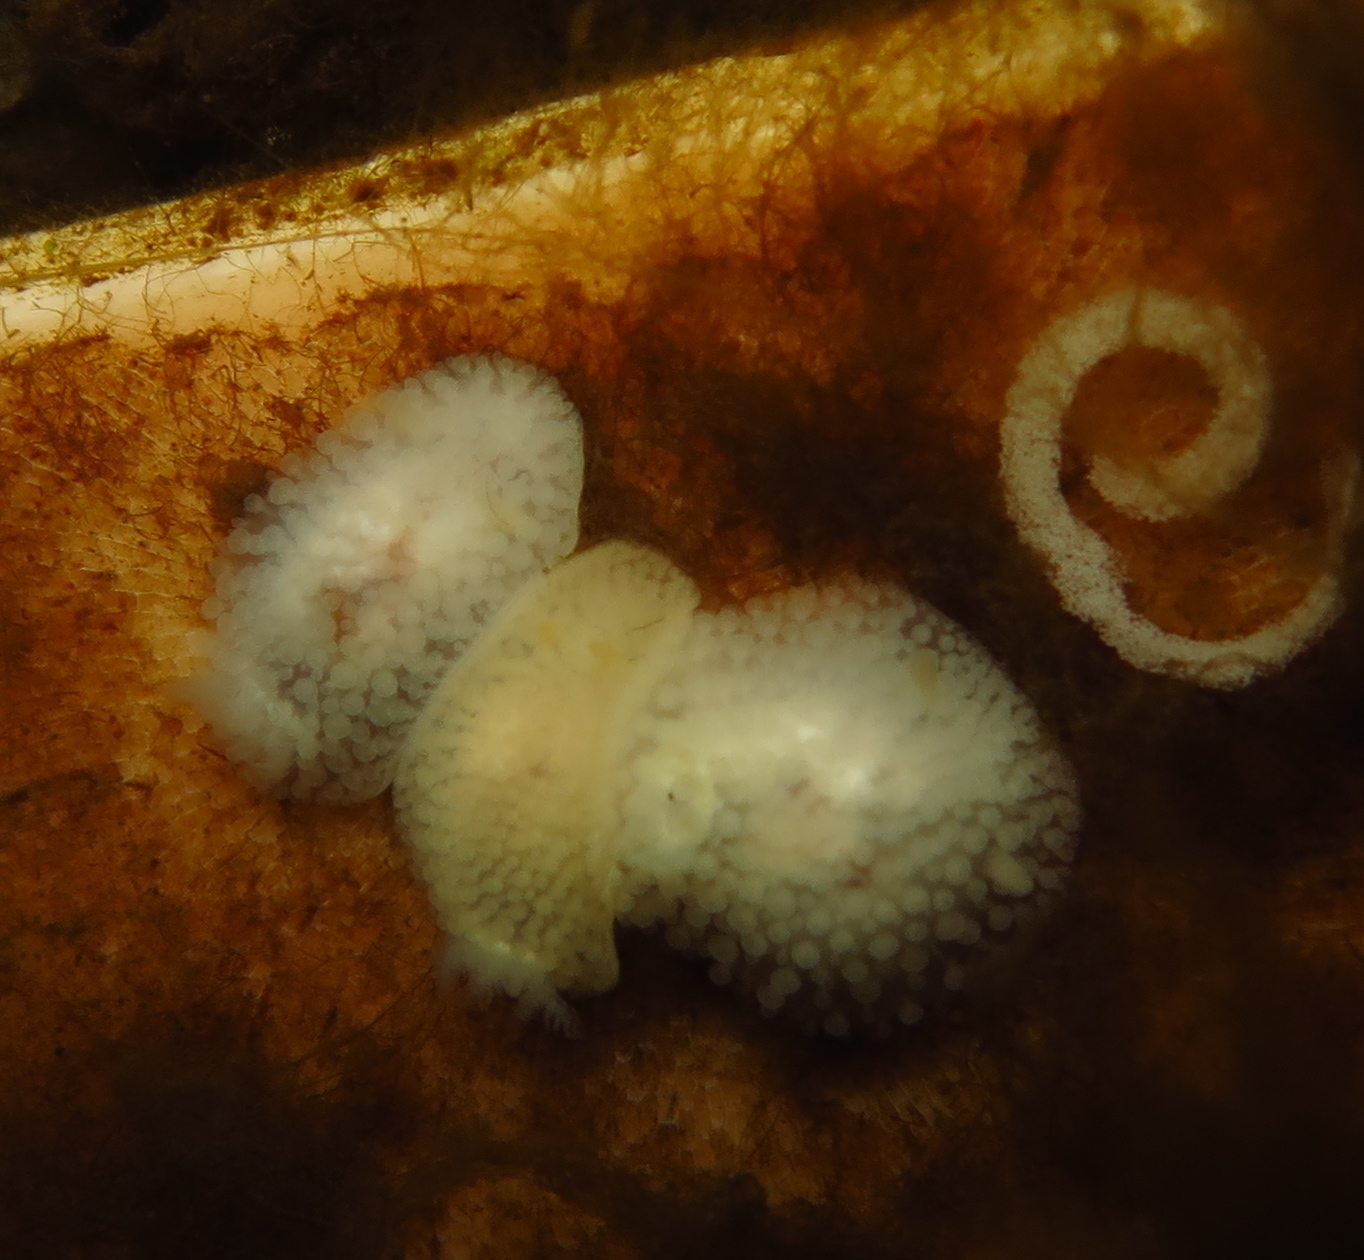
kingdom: Animalia
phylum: Mollusca
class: Gastropoda
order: Nudibranchia
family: Onchidorididae
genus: Onchidoris
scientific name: Onchidoris muricata
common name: Rough doris
